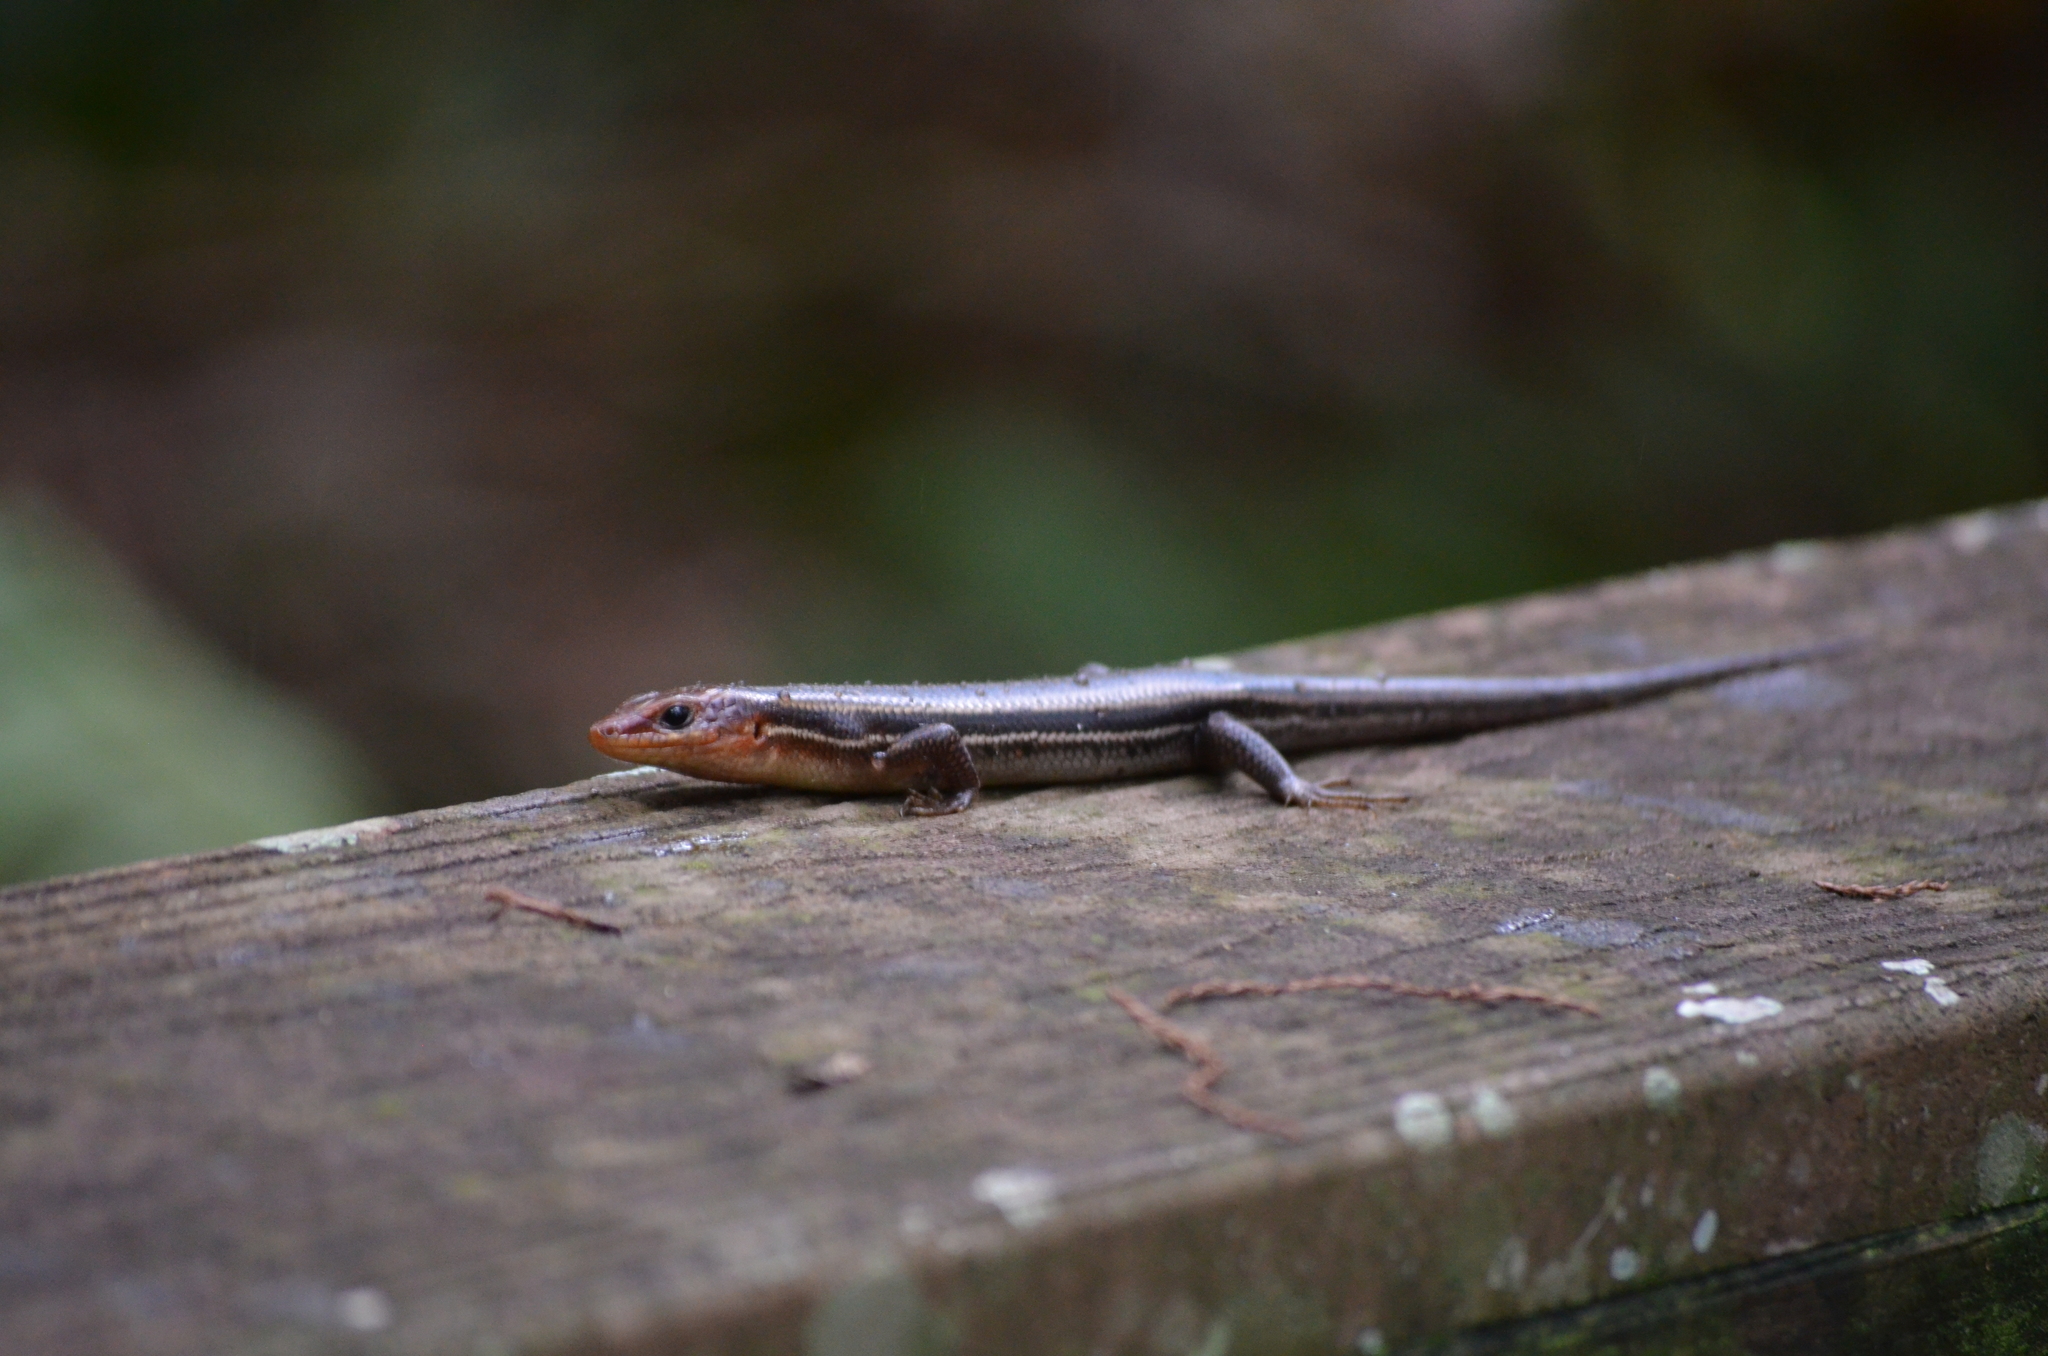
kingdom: Animalia
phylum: Chordata
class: Squamata
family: Scincidae
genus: Plestiodon
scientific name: Plestiodon inexpectatus
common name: Southeastern five-lined skink
